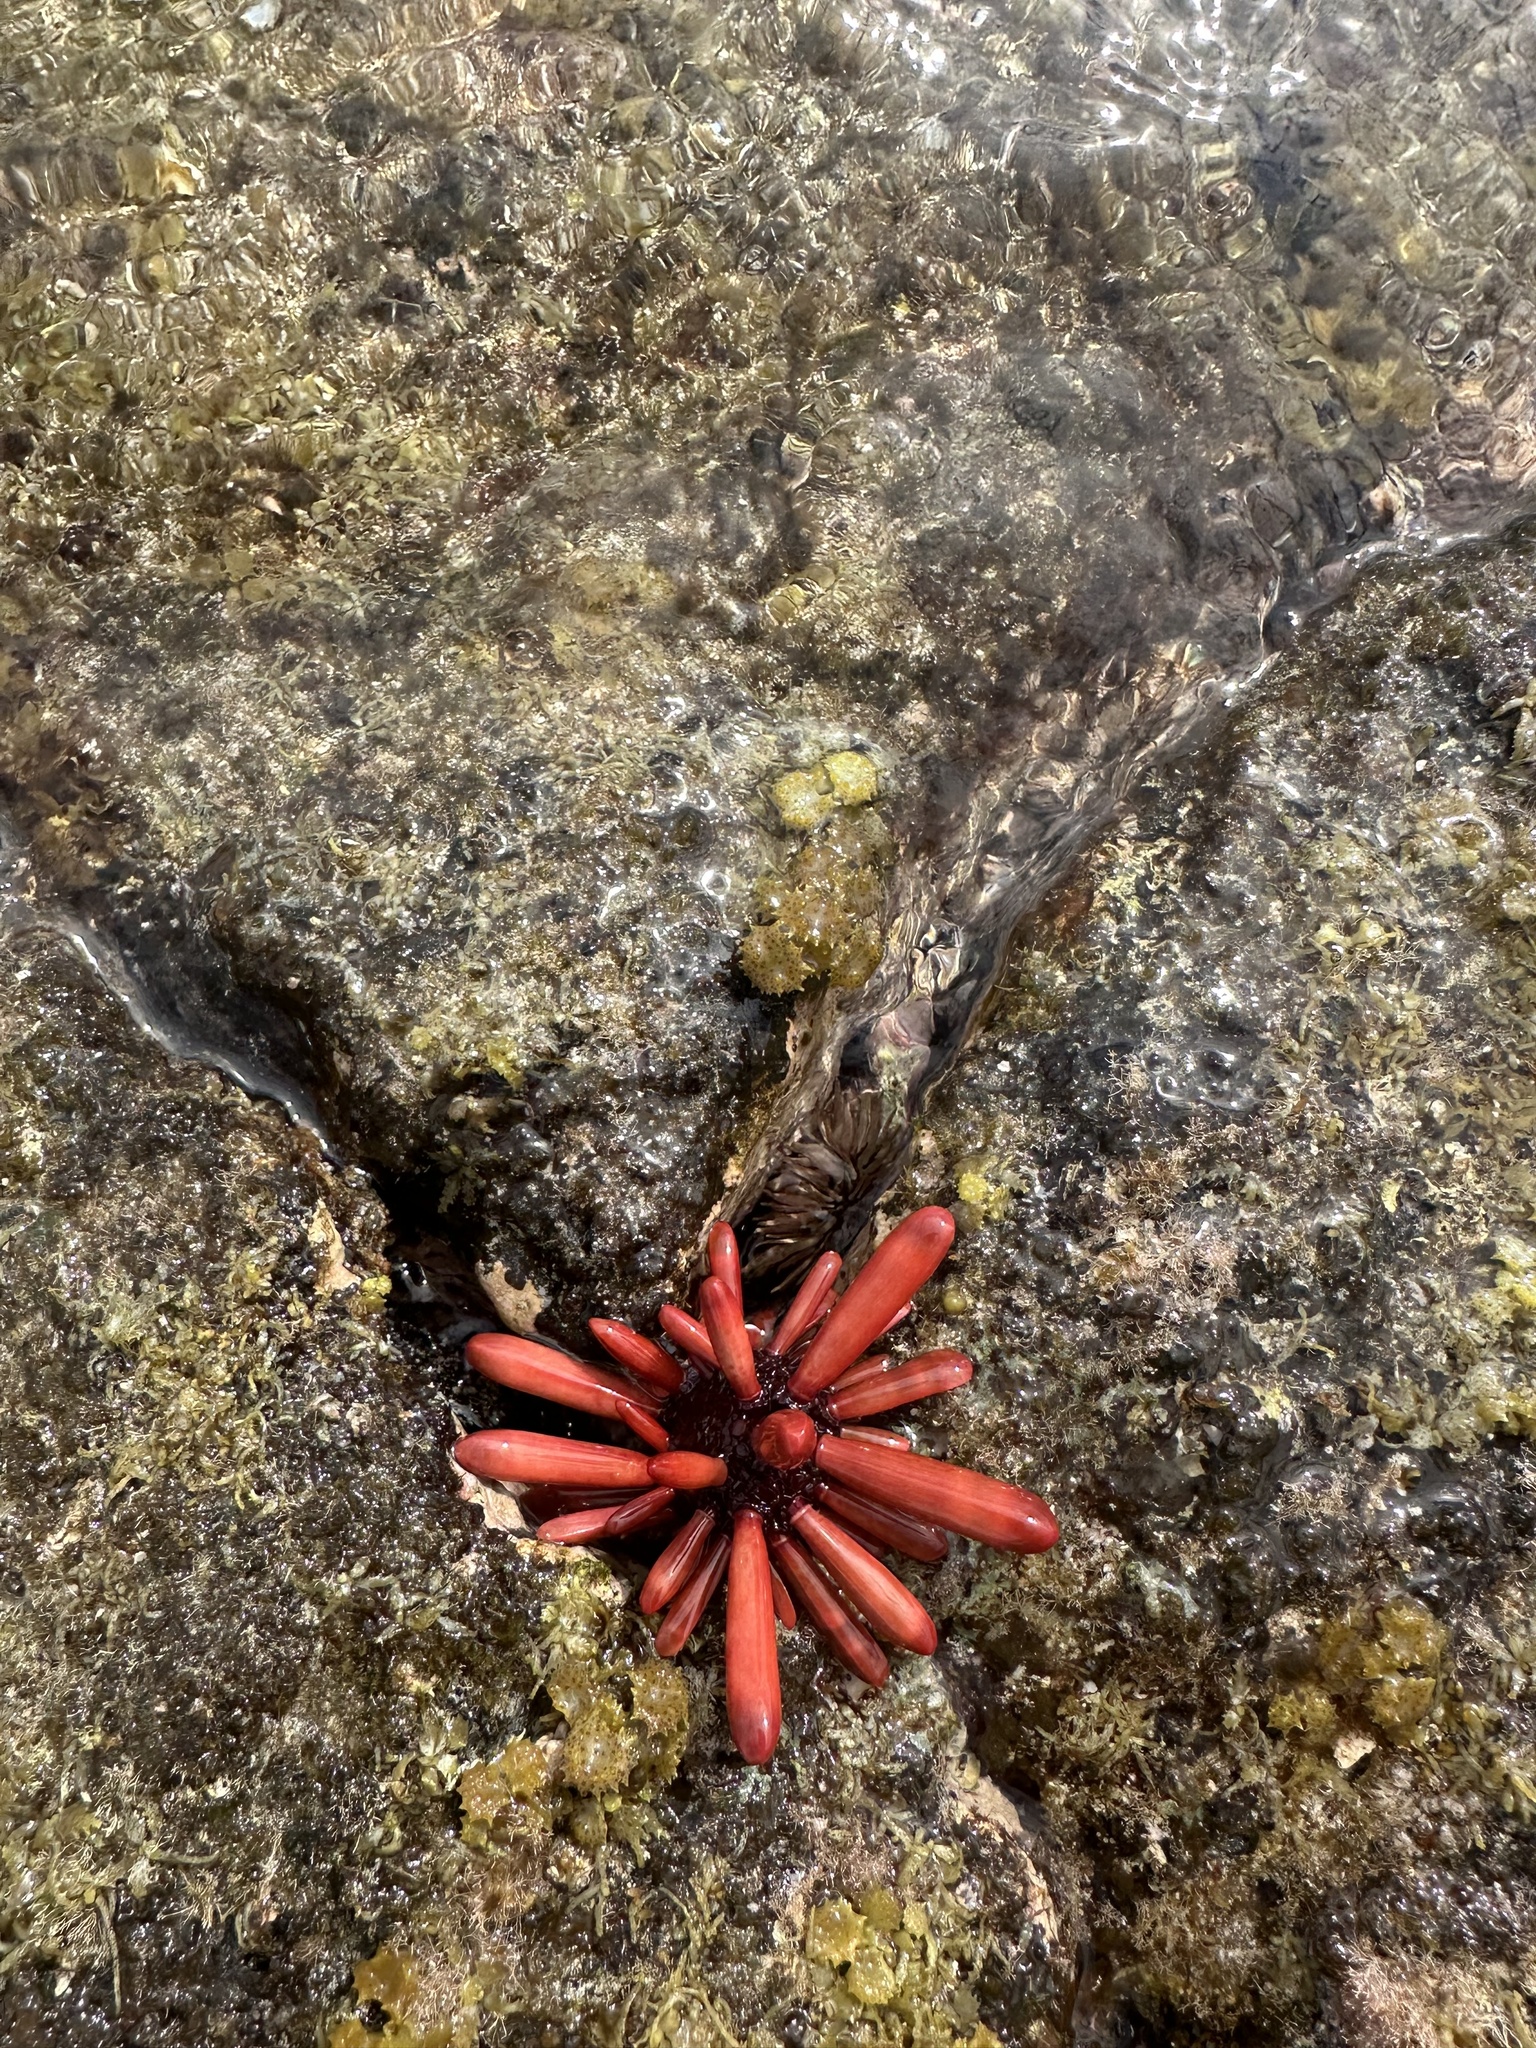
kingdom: Animalia
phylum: Echinodermata
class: Echinoidea
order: Camarodonta
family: Echinometridae
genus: Heterocentrotus
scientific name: Heterocentrotus mamillatus
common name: Slate pencil urchin
